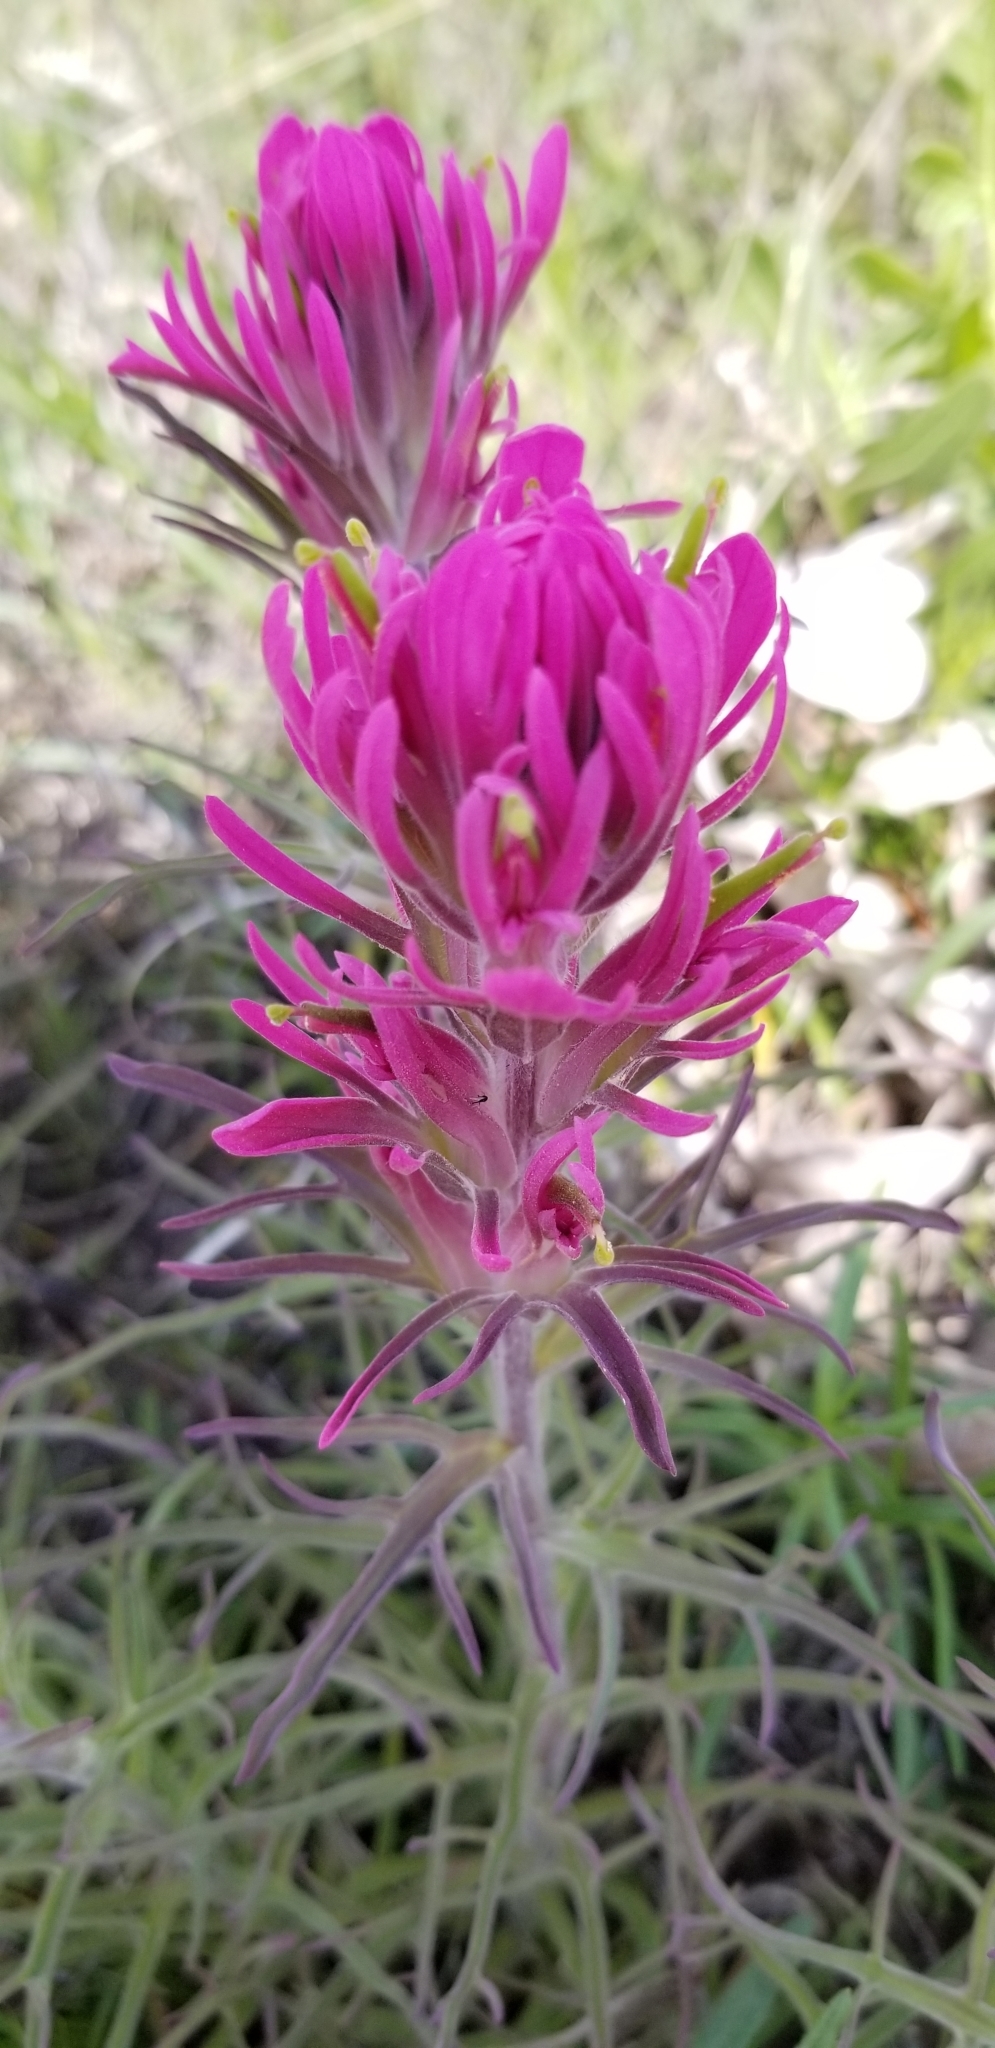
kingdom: Plantae
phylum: Tracheophyta
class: Magnoliopsida
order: Lamiales
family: Orobanchaceae
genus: Castilleja
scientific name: Castilleja purpurea
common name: Plains paintbrush
